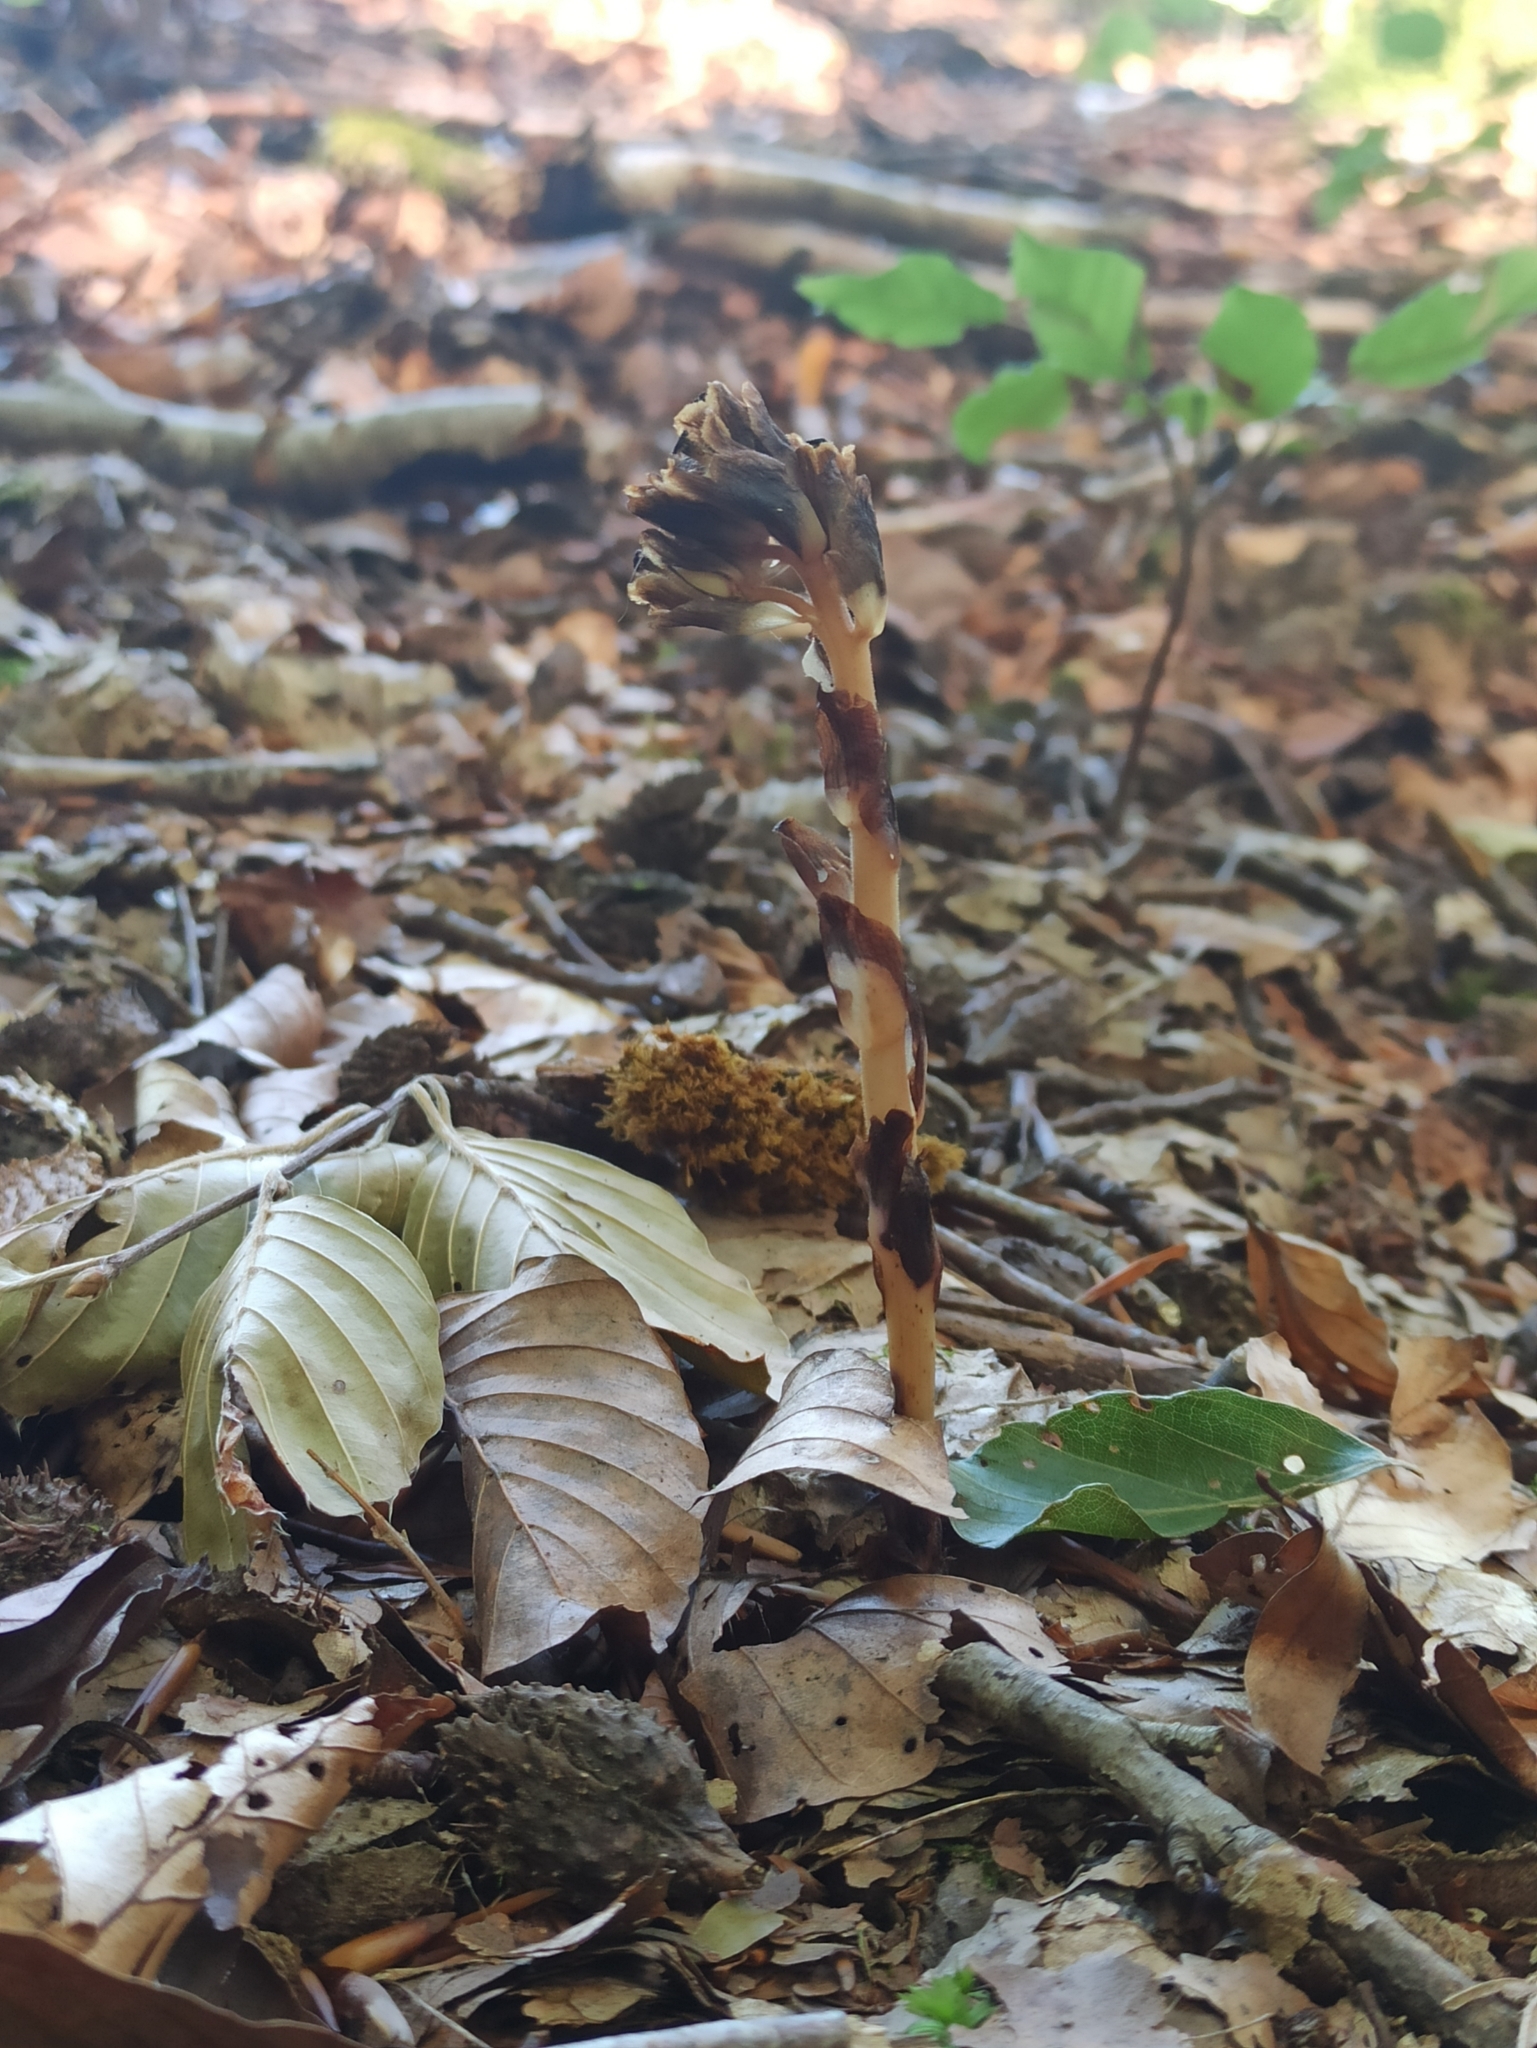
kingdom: Plantae
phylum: Tracheophyta
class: Magnoliopsida
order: Ericales
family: Ericaceae
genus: Hypopitys
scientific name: Hypopitys monotropa
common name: Yellow bird's-nest
